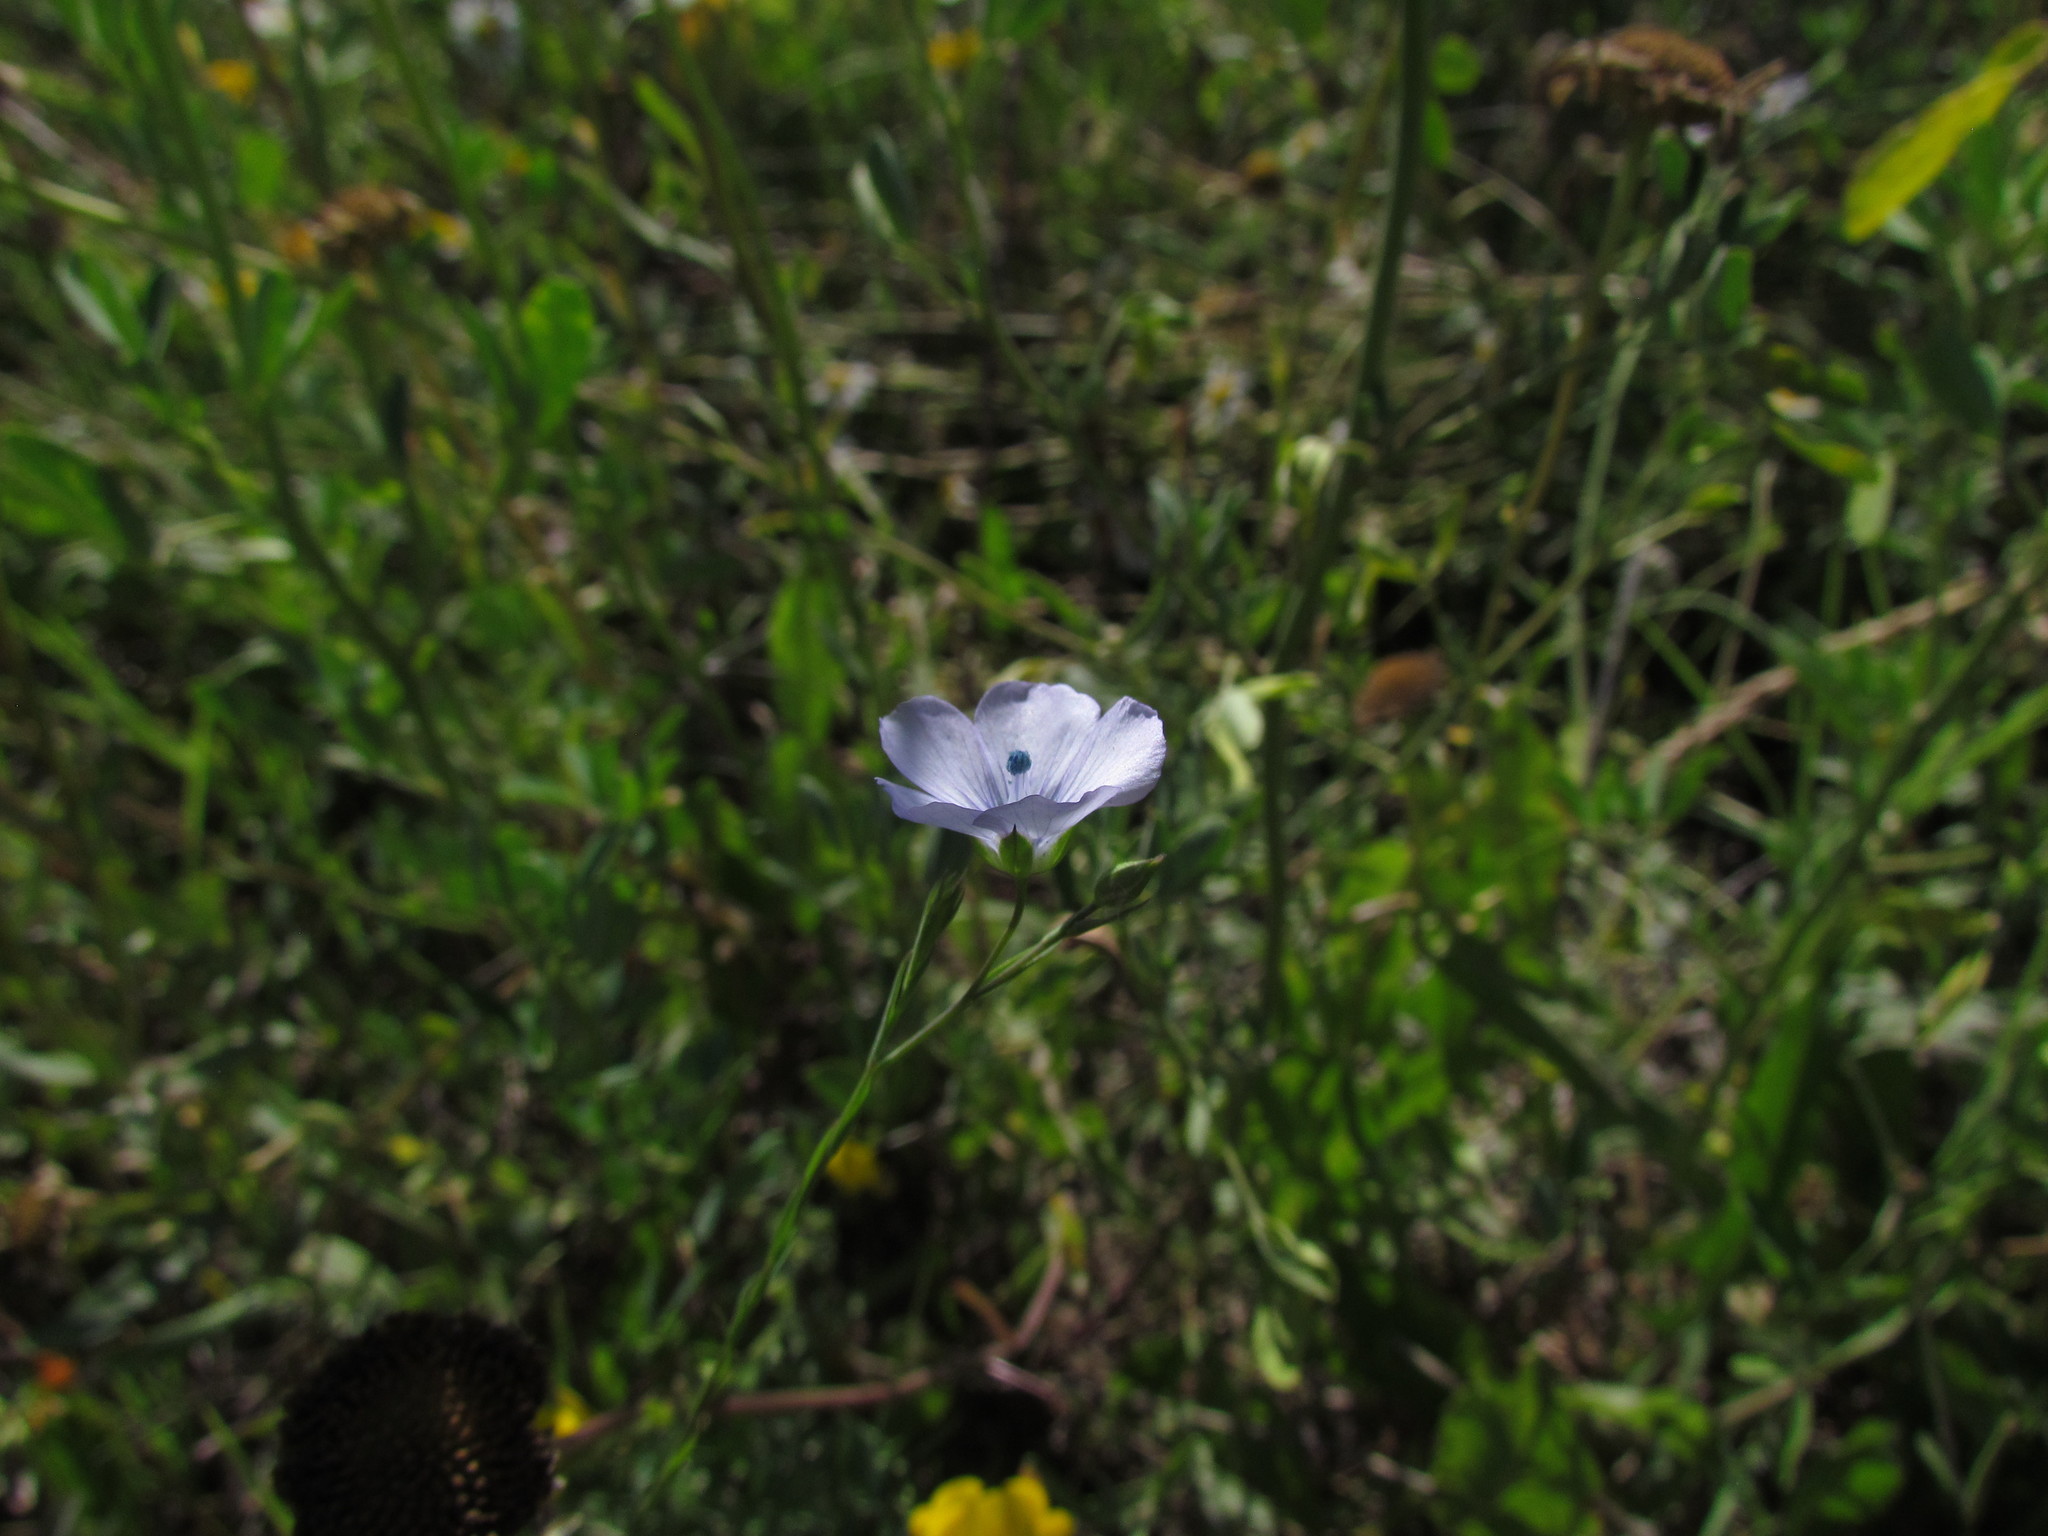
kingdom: Plantae
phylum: Tracheophyta
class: Magnoliopsida
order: Malpighiales
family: Linaceae
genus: Linum
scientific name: Linum usitatissimum
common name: Flax
